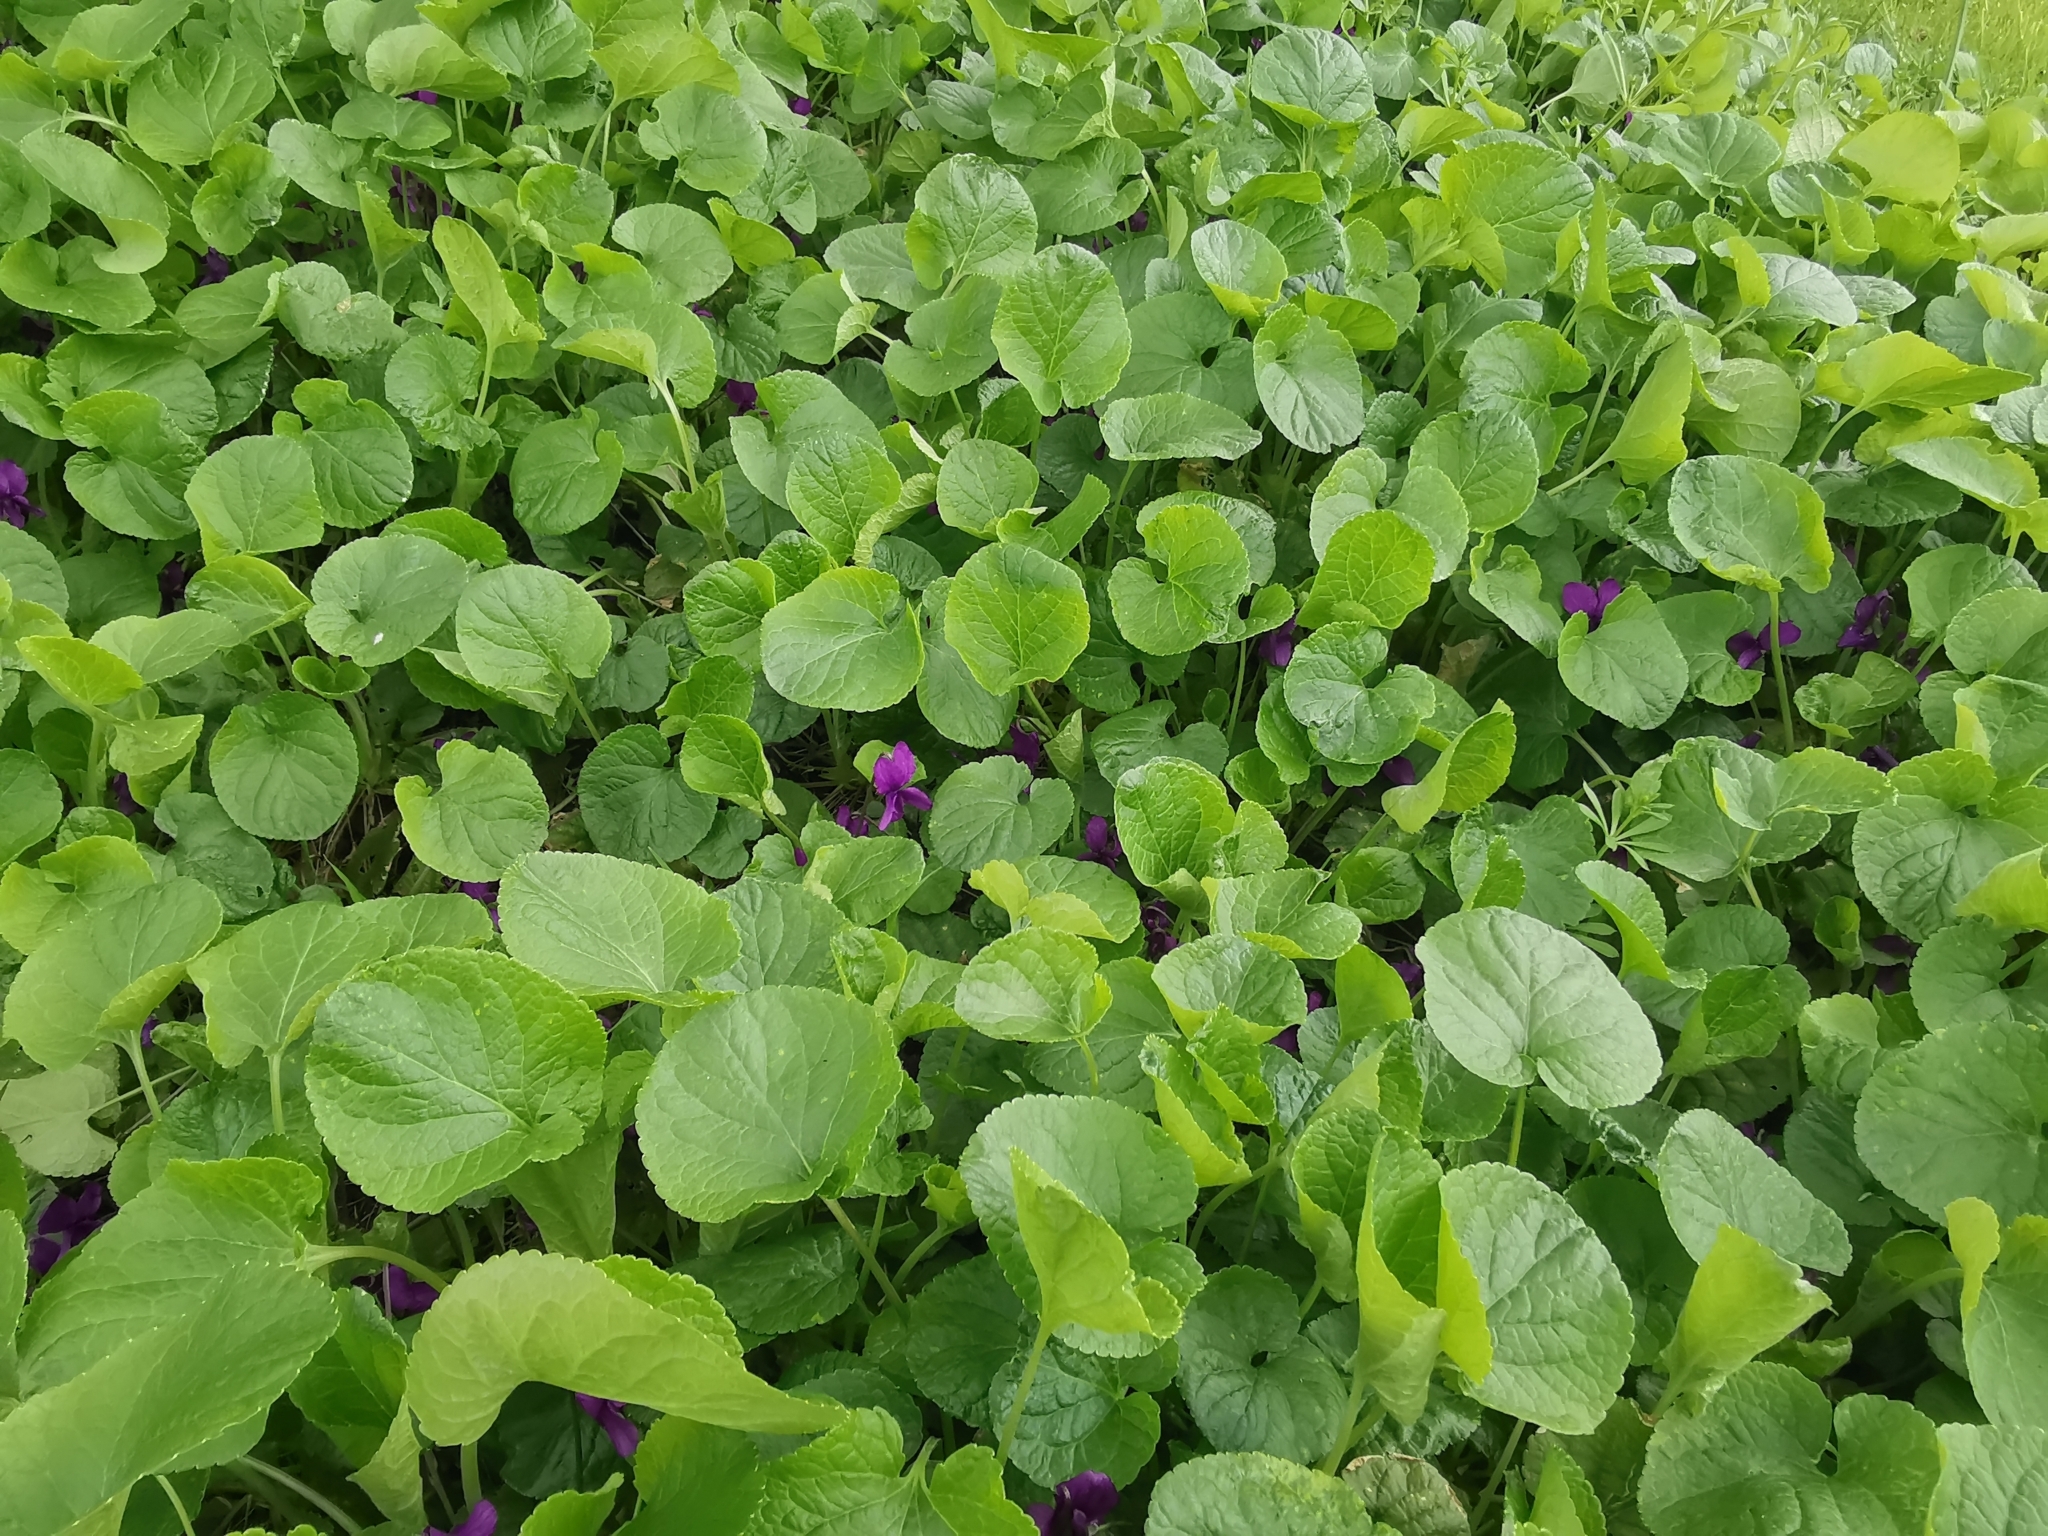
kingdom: Plantae
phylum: Tracheophyta
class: Magnoliopsida
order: Malpighiales
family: Violaceae
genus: Viola
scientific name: Viola odorata
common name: Sweet violet
